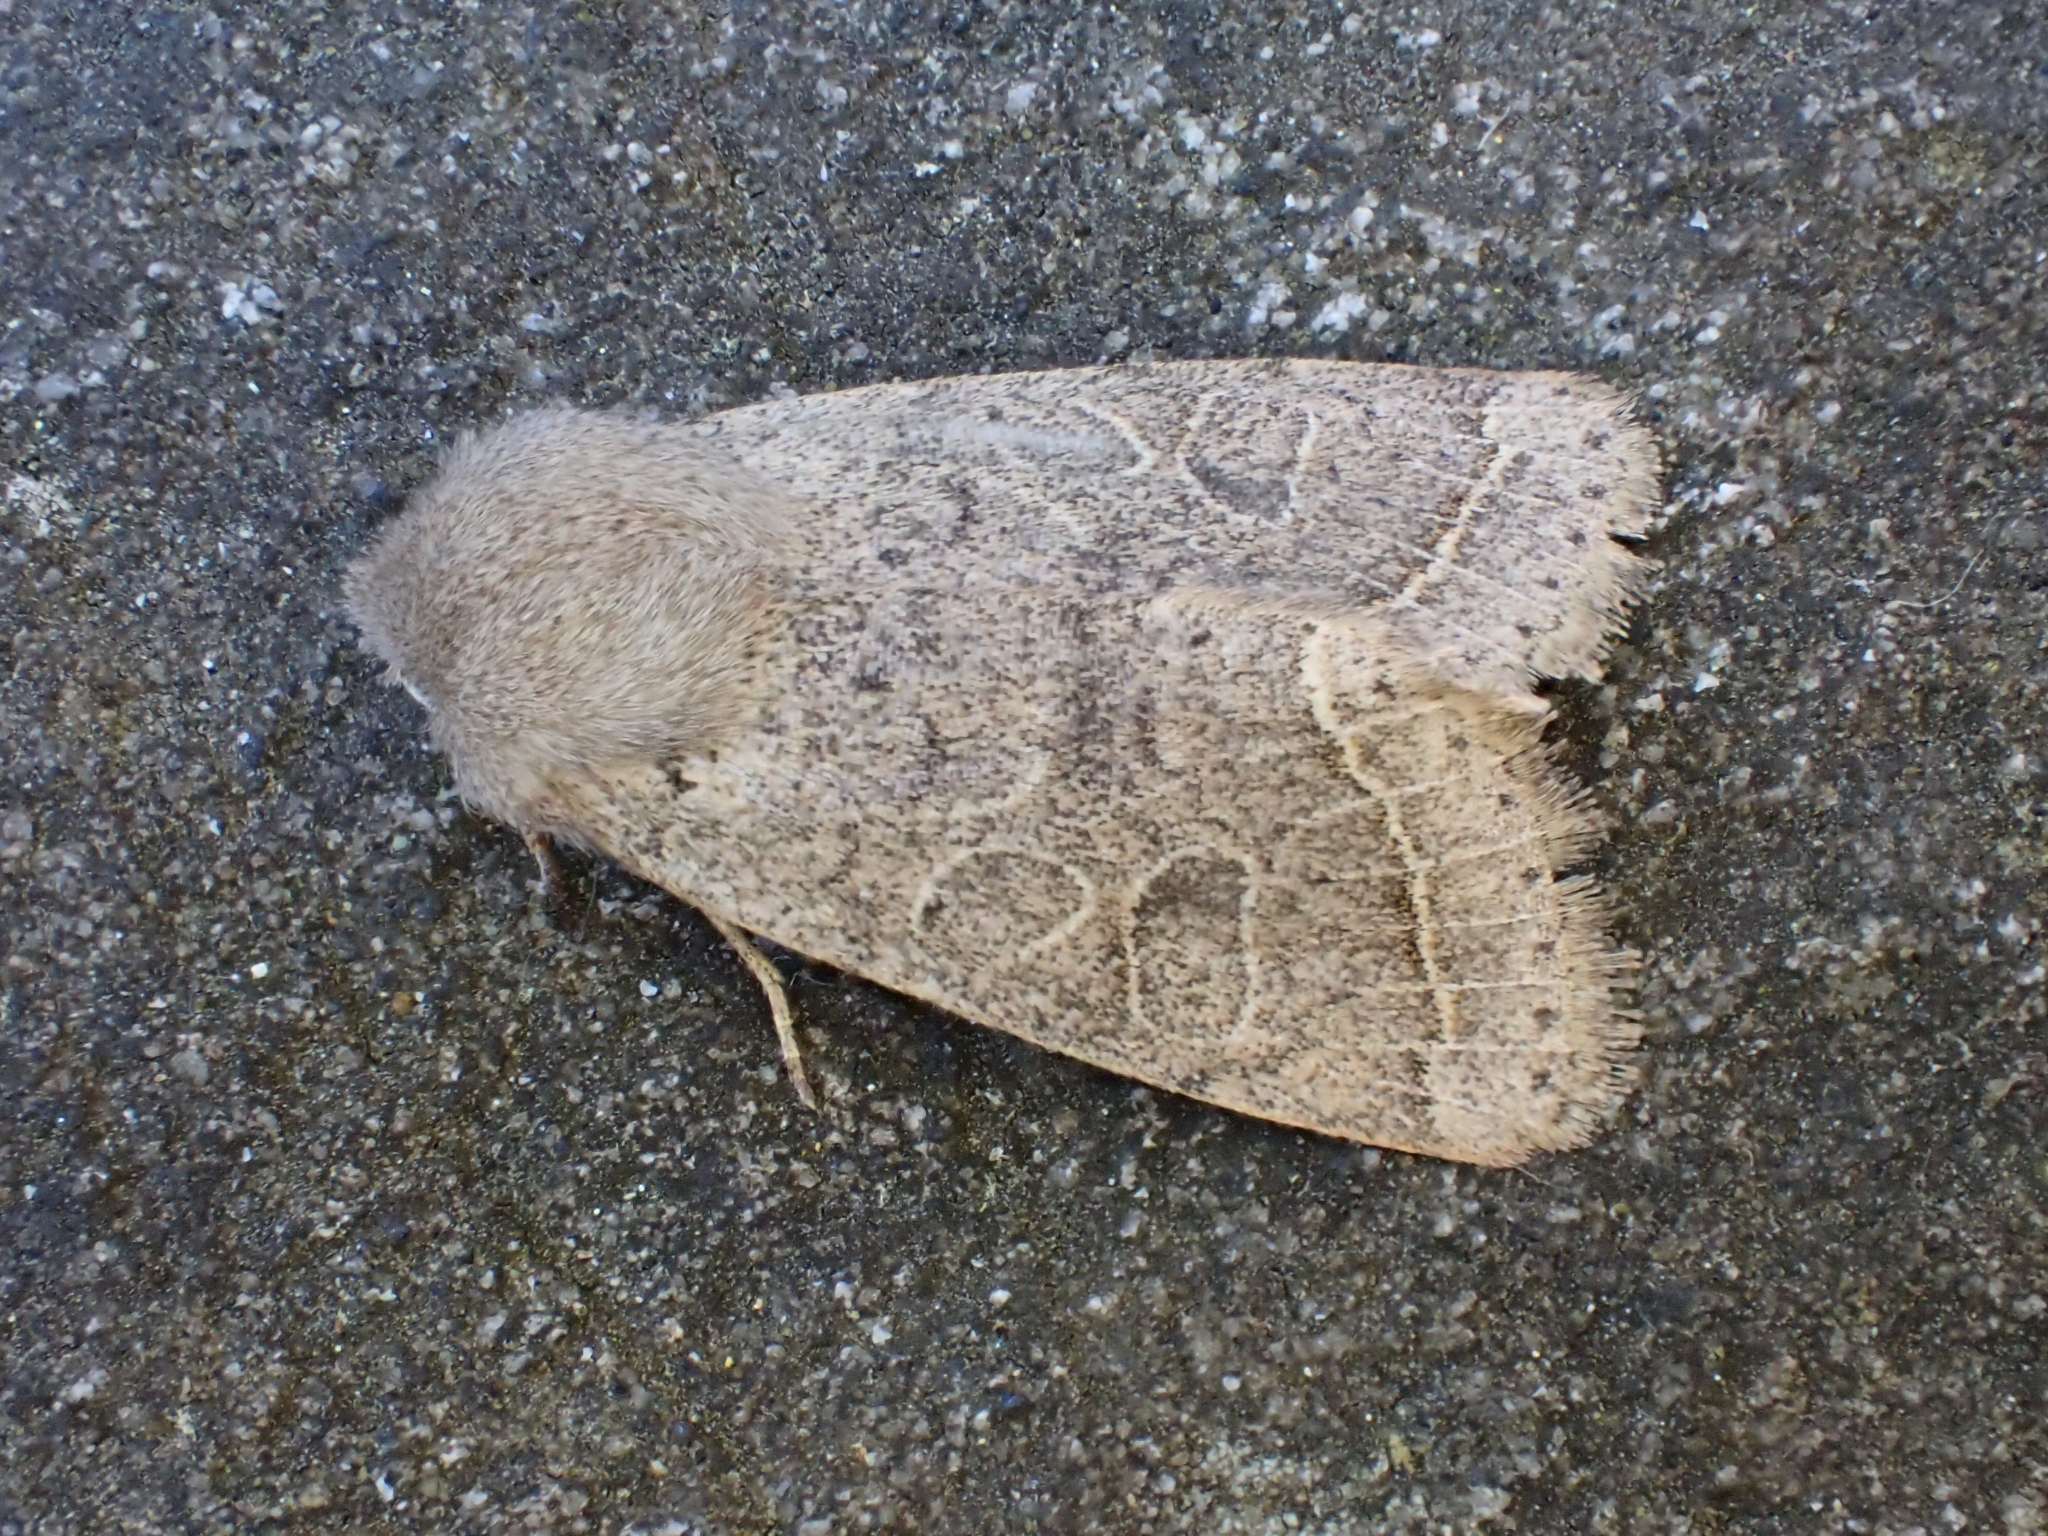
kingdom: Animalia
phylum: Arthropoda
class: Insecta
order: Lepidoptera
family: Noctuidae
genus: Orthosia
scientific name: Orthosia cerasi
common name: Common quaker
